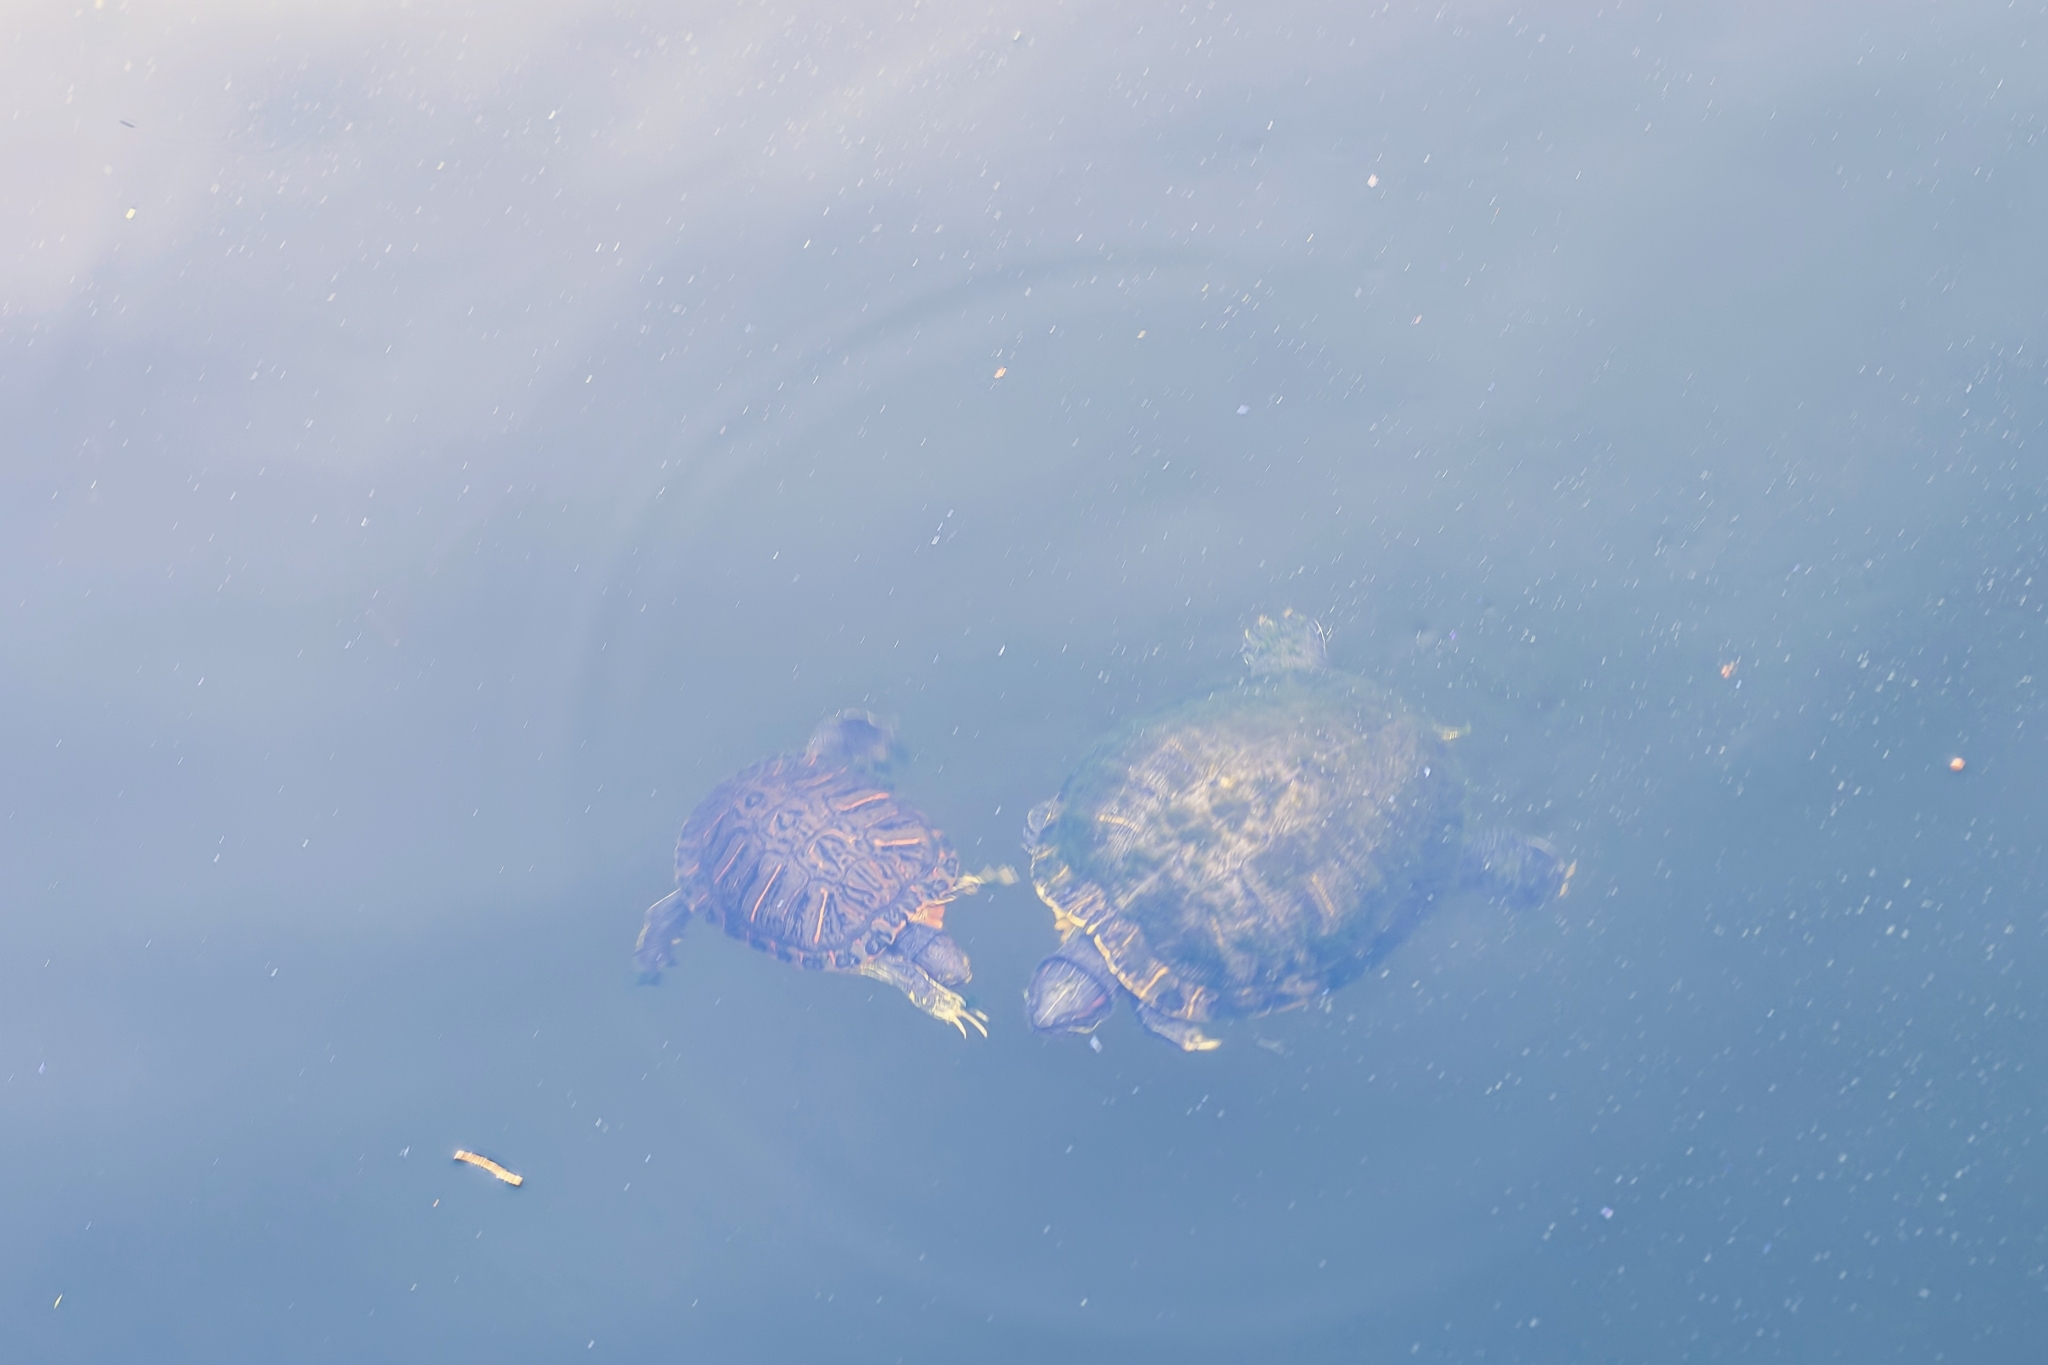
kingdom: Animalia
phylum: Chordata
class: Testudines
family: Emydidae
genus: Trachemys
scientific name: Trachemys scripta
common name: Slider
